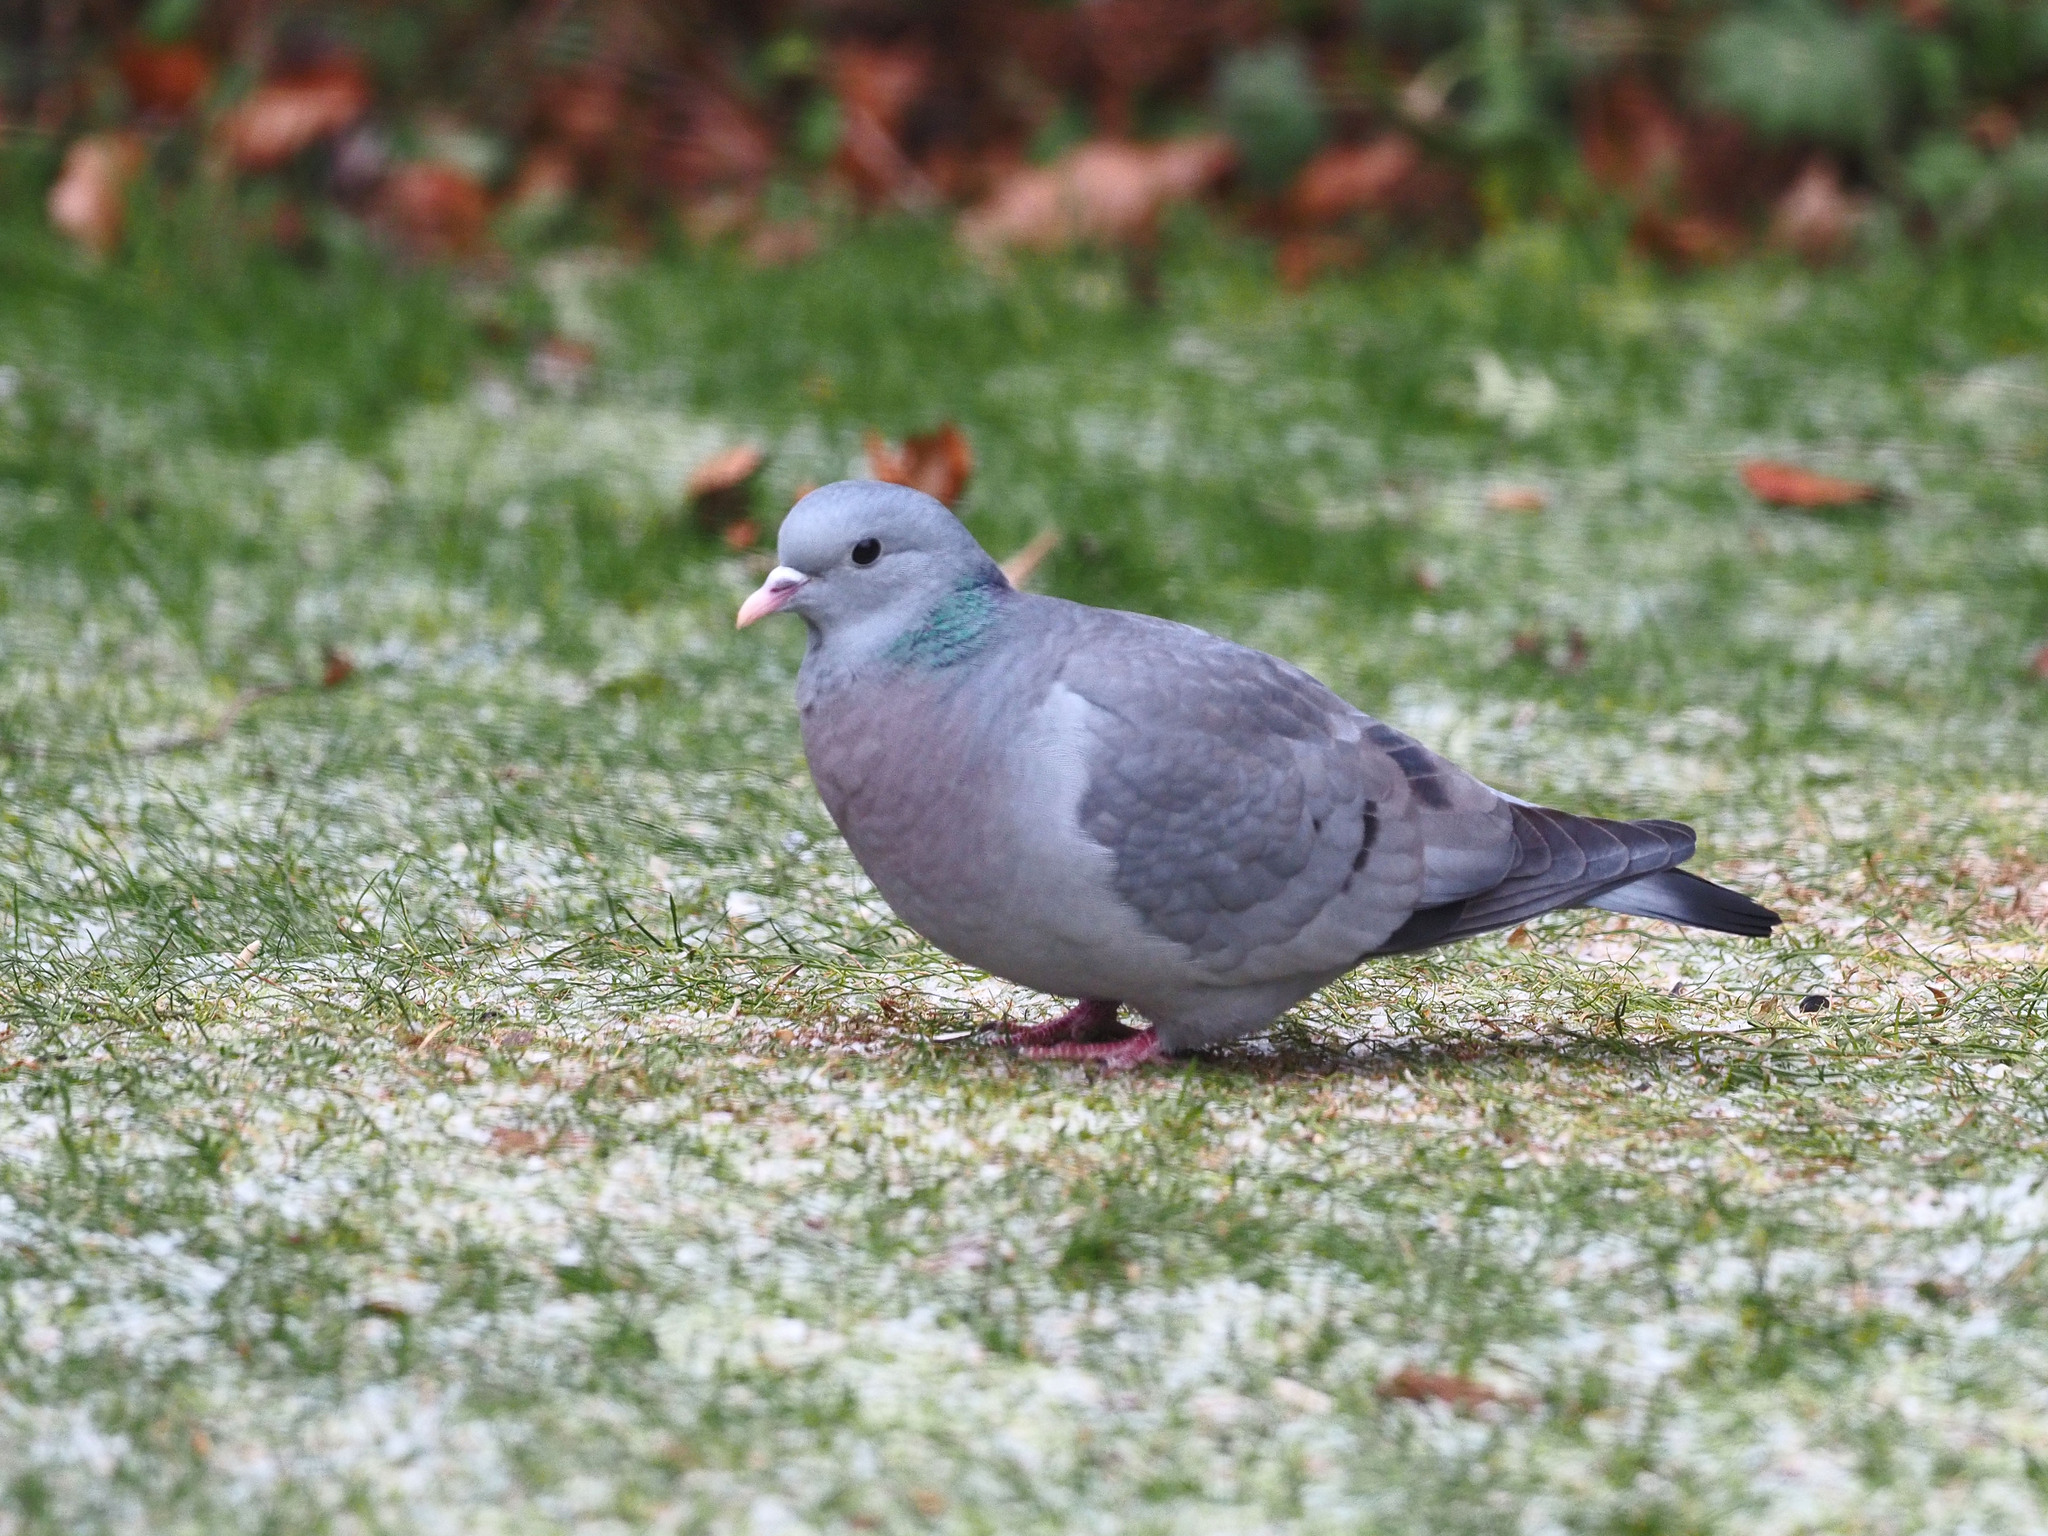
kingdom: Animalia
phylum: Chordata
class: Aves
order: Columbiformes
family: Columbidae
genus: Columba
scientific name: Columba oenas
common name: Stock dove
